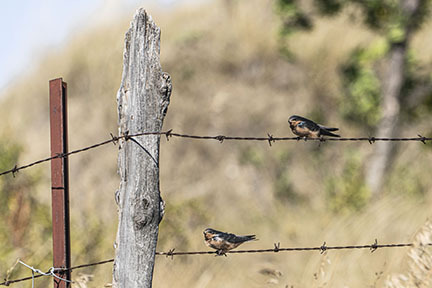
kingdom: Animalia
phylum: Chordata
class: Aves
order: Passeriformes
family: Hirundinidae
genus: Hirundo
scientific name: Hirundo rustica
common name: Barn swallow
